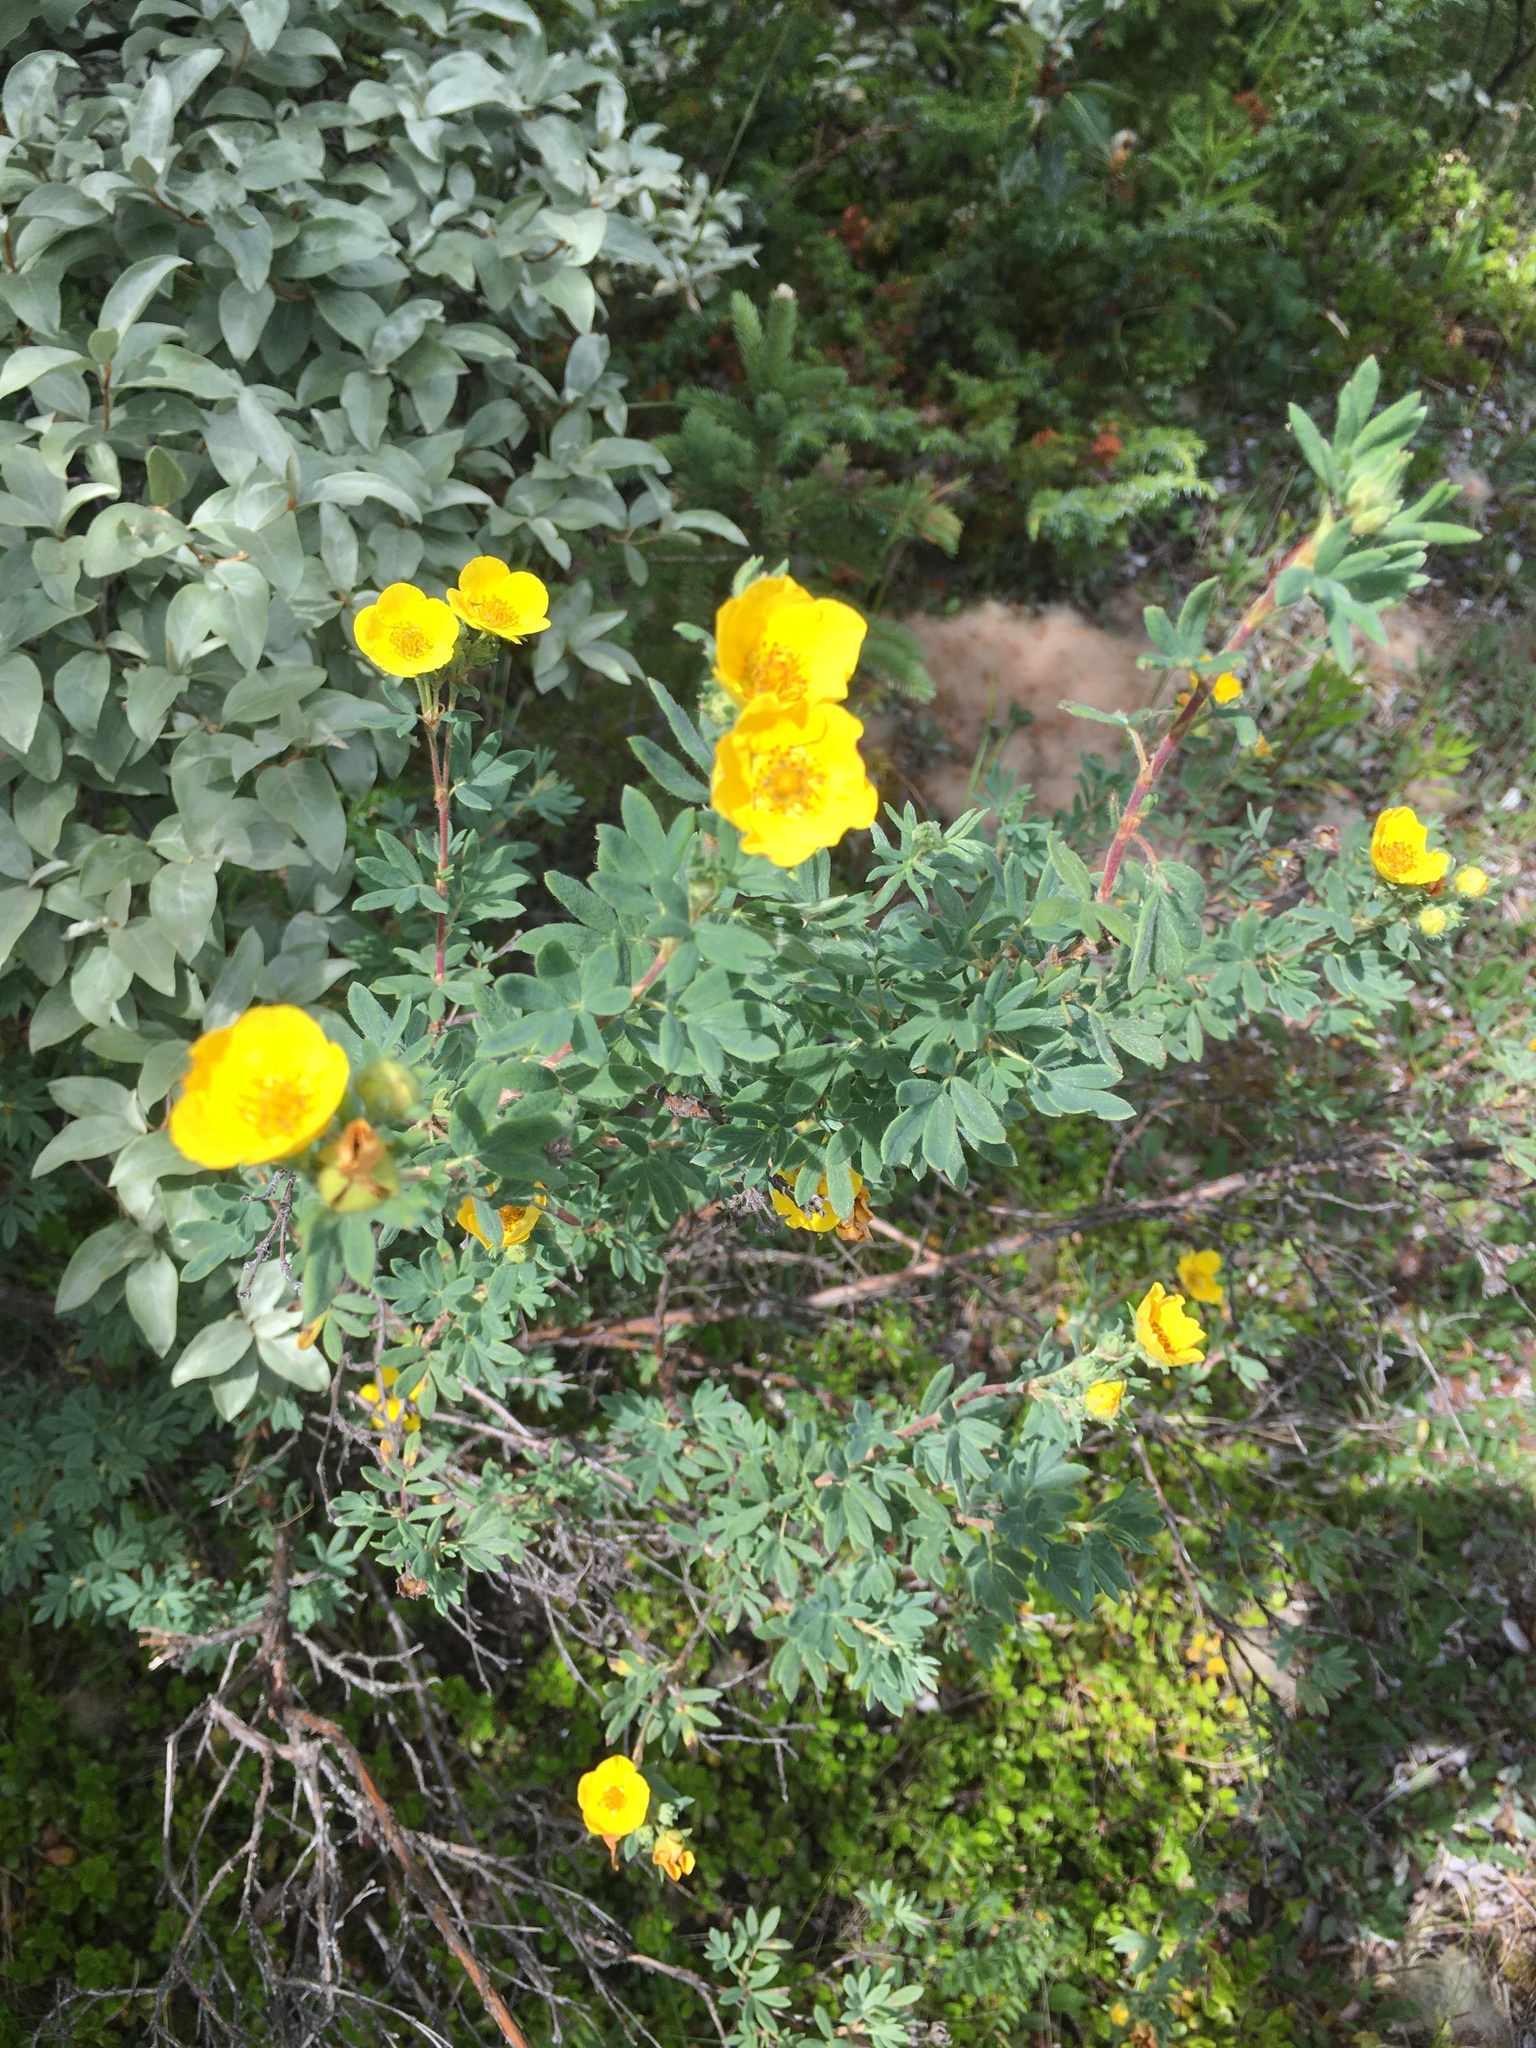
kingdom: Plantae
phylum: Tracheophyta
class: Magnoliopsida
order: Rosales
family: Rosaceae
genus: Dasiphora
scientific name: Dasiphora fruticosa
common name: Shrubby cinquefoil
